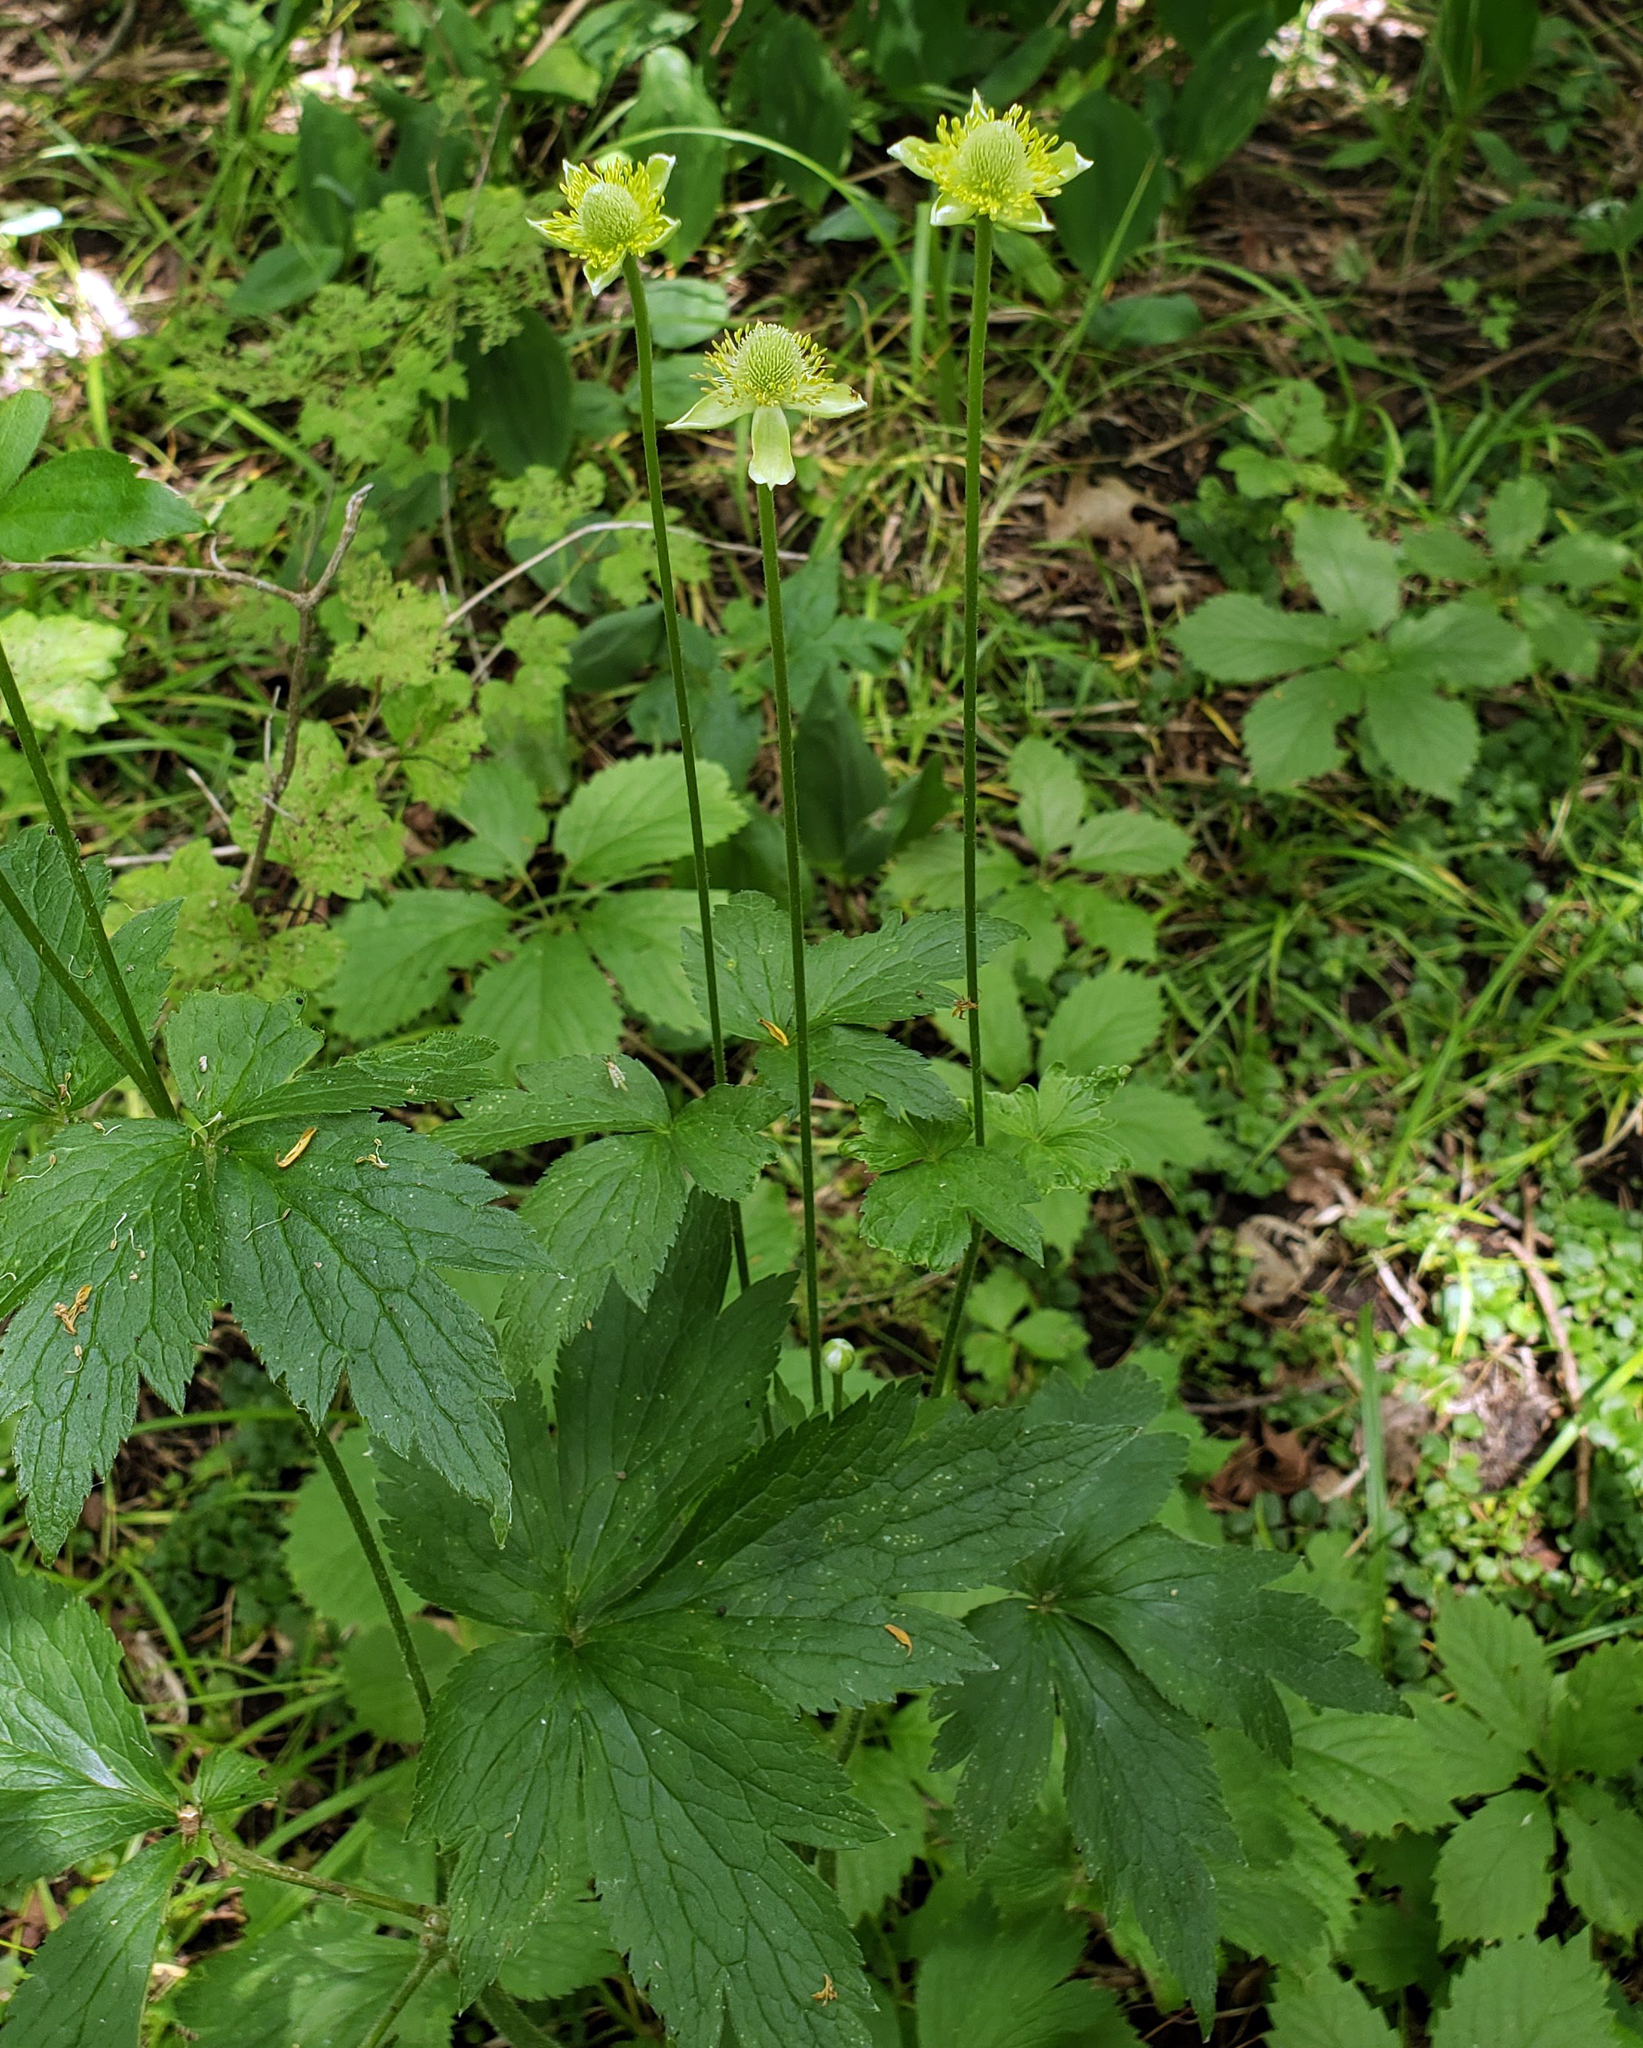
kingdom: Plantae
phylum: Tracheophyta
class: Magnoliopsida
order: Ranunculales
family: Ranunculaceae
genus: Anemone
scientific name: Anemone virginiana
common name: Tall anemone
